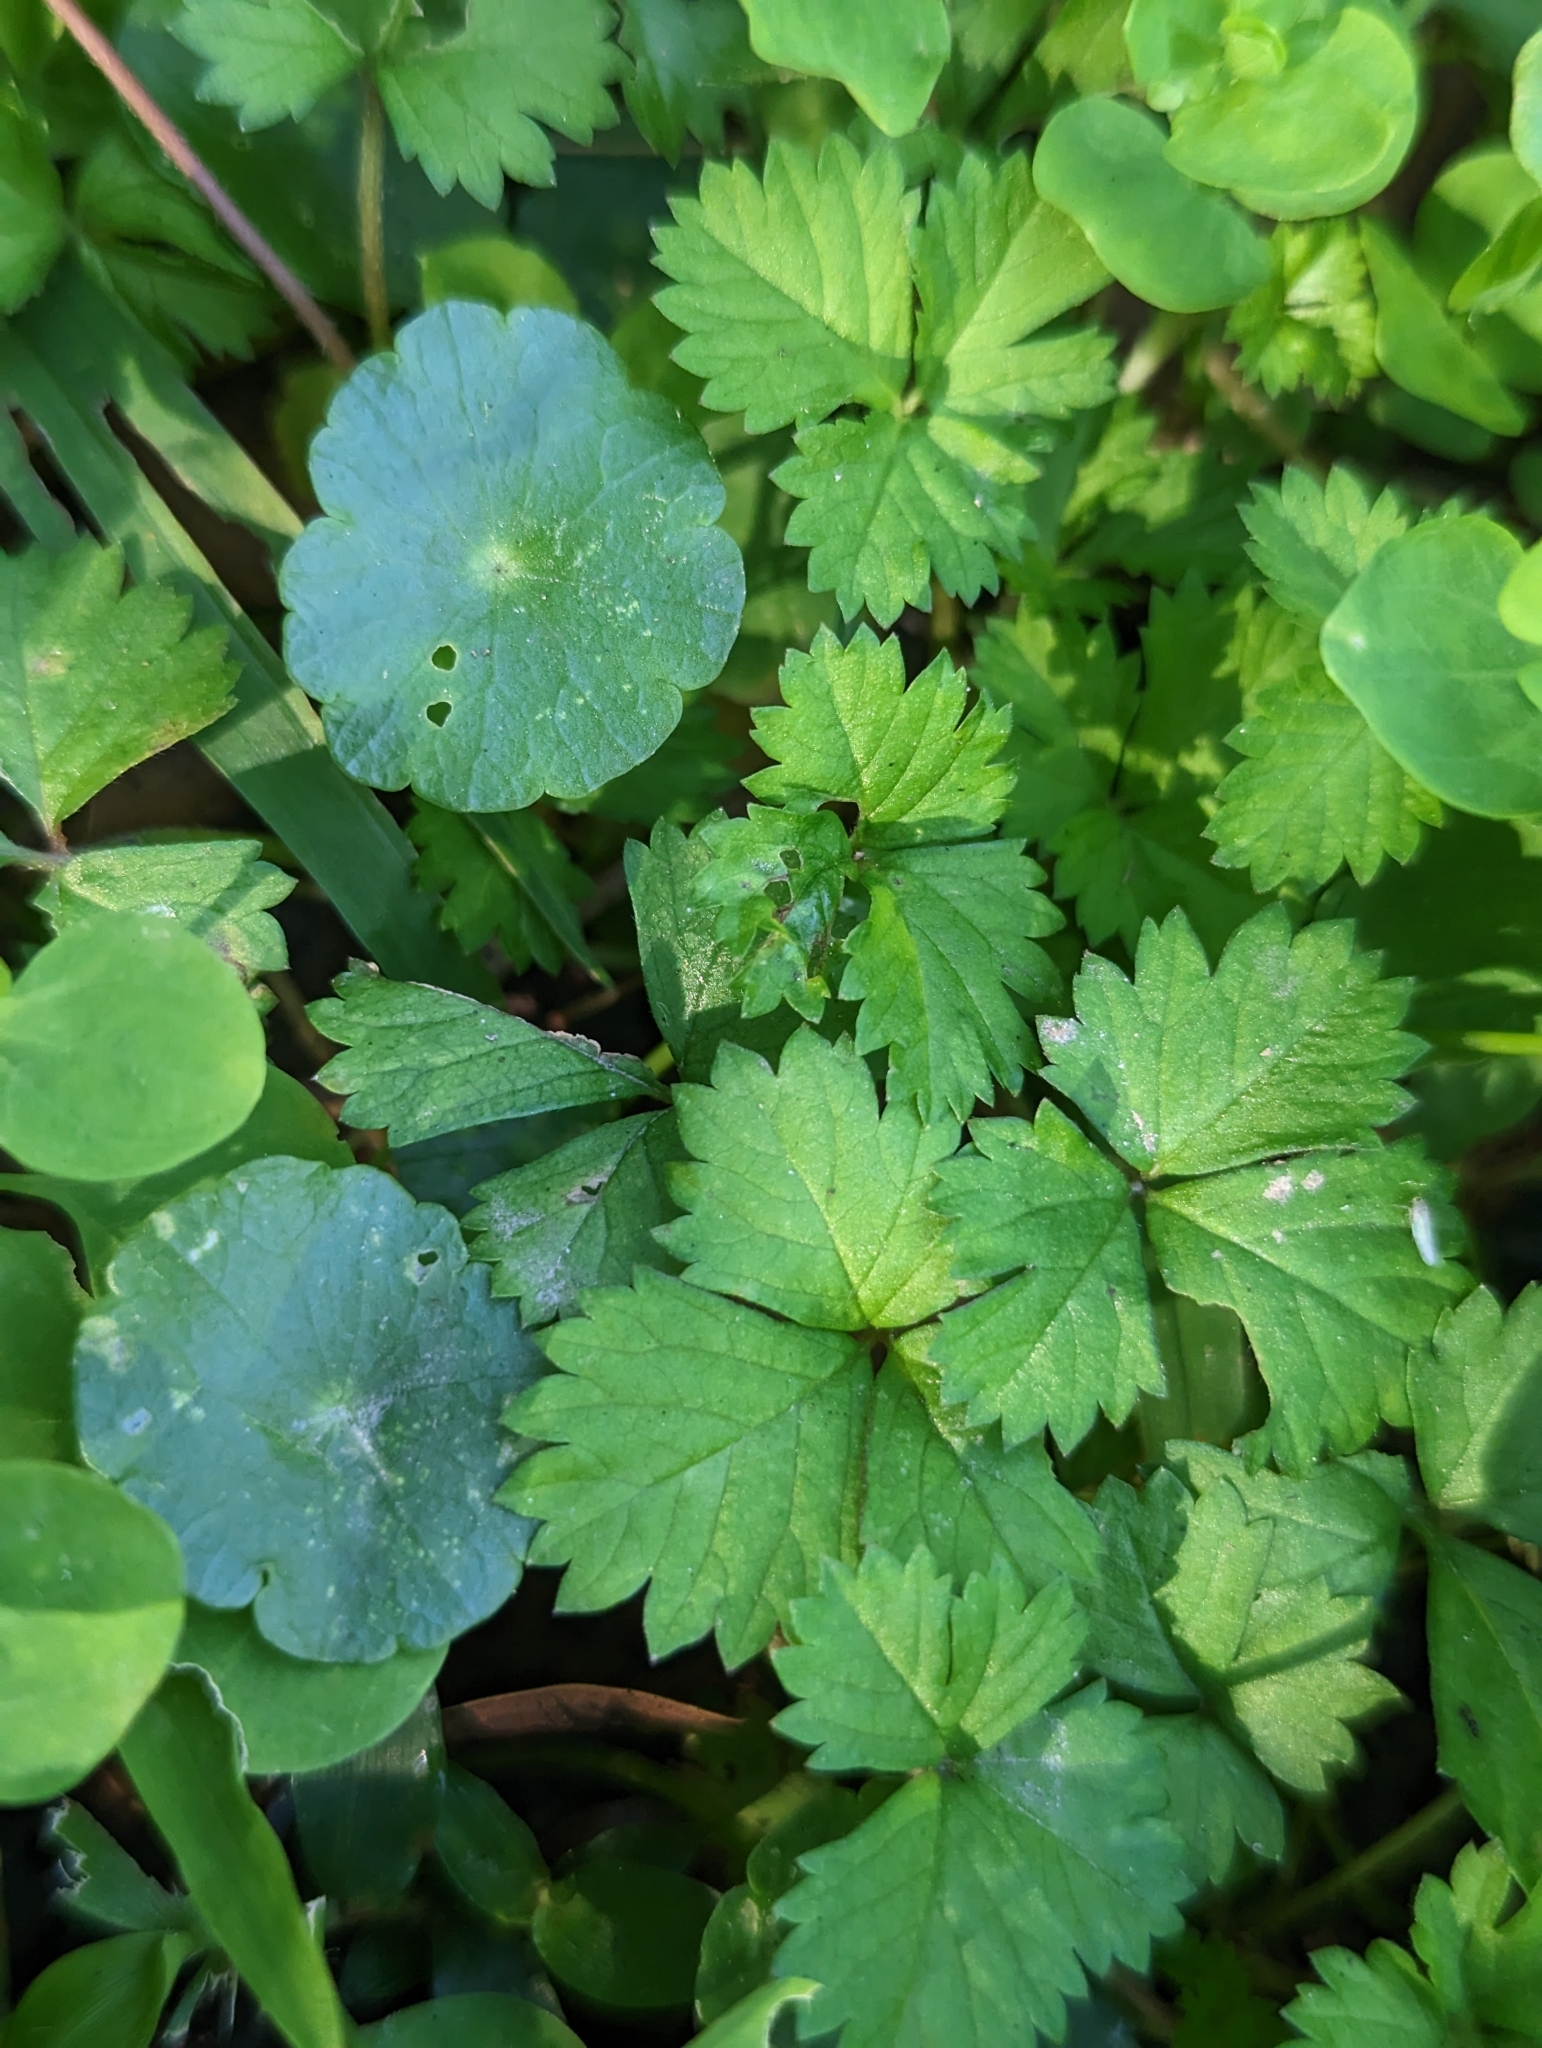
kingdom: Plantae
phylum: Tracheophyta
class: Magnoliopsida
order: Rosales
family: Rosaceae
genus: Potentilla
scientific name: Potentilla wallichiana
